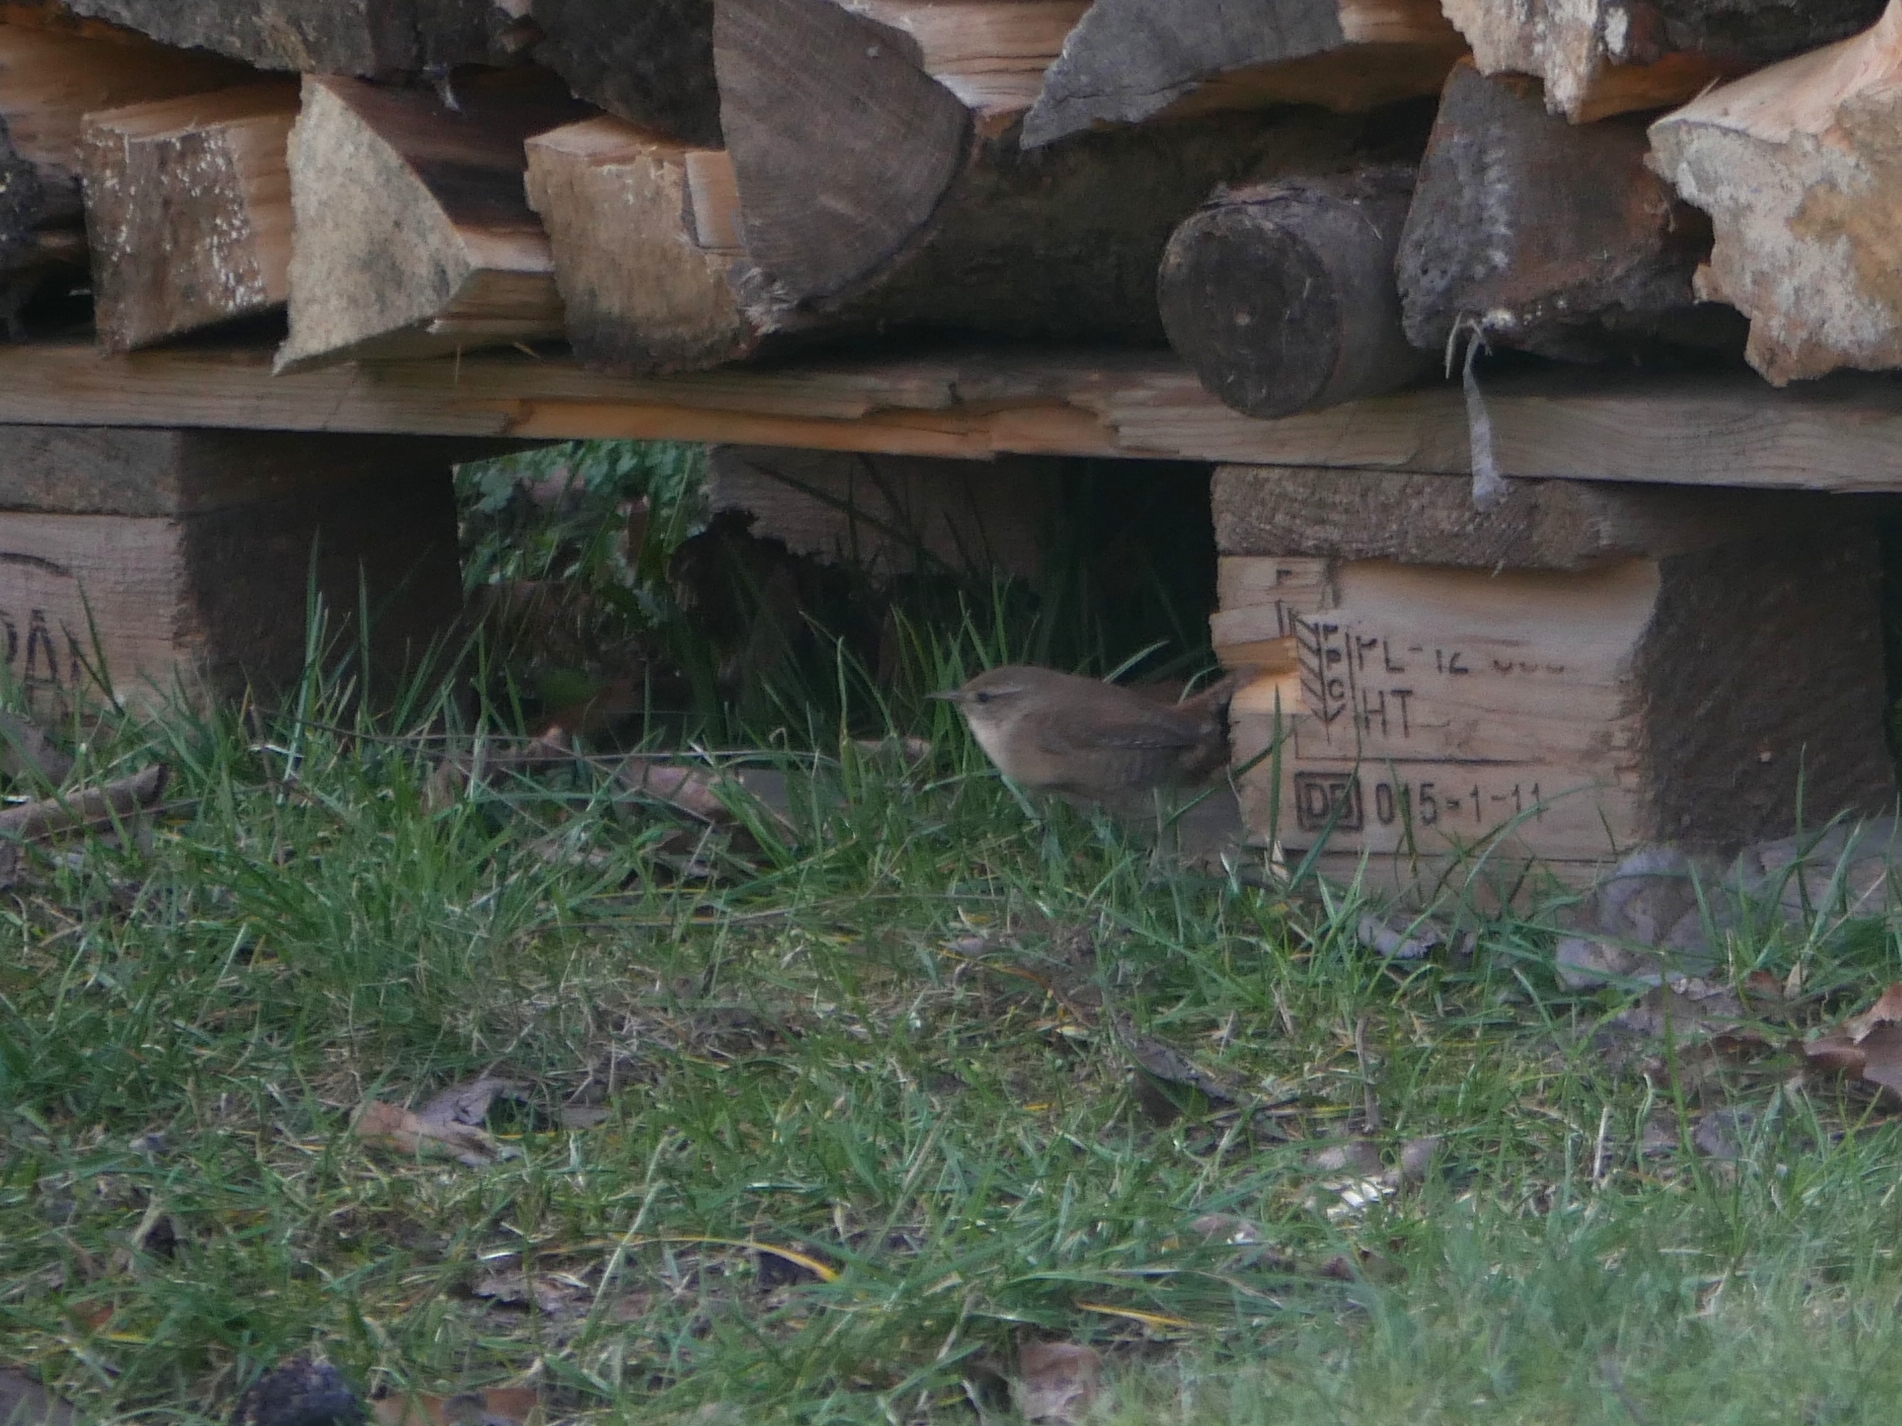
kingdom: Animalia
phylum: Chordata
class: Aves
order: Passeriformes
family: Troglodytidae
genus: Troglodytes
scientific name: Troglodytes troglodytes
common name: Eurasian wren
